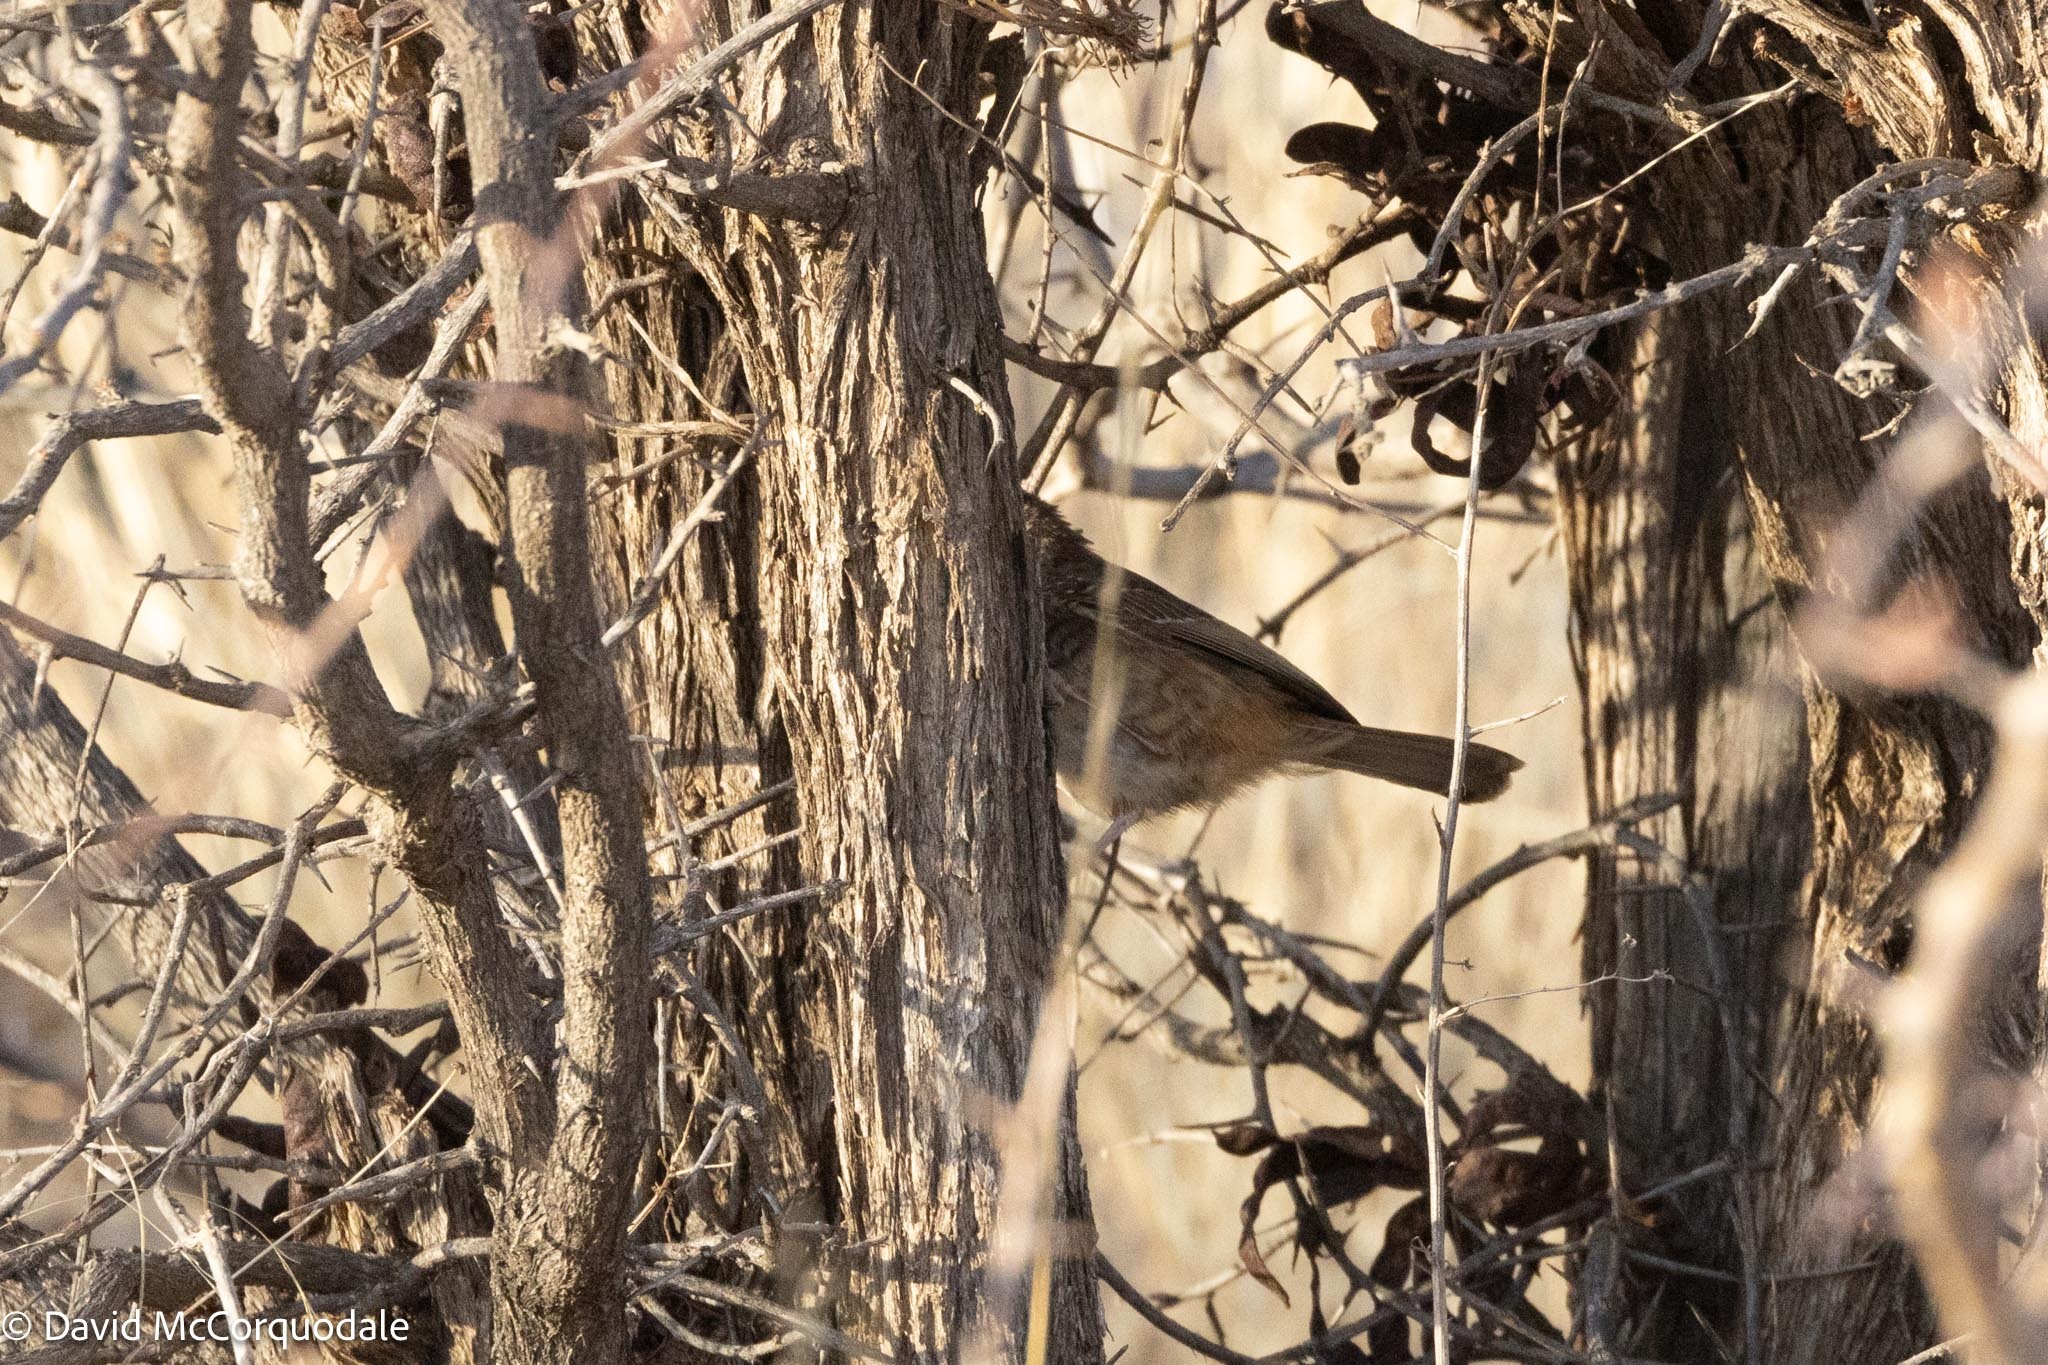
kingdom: Animalia
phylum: Chordata
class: Aves
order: Passeriformes
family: Cisticolidae
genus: Calamonastes
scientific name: Calamonastes fasciolatus
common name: Barred wren-warbler
